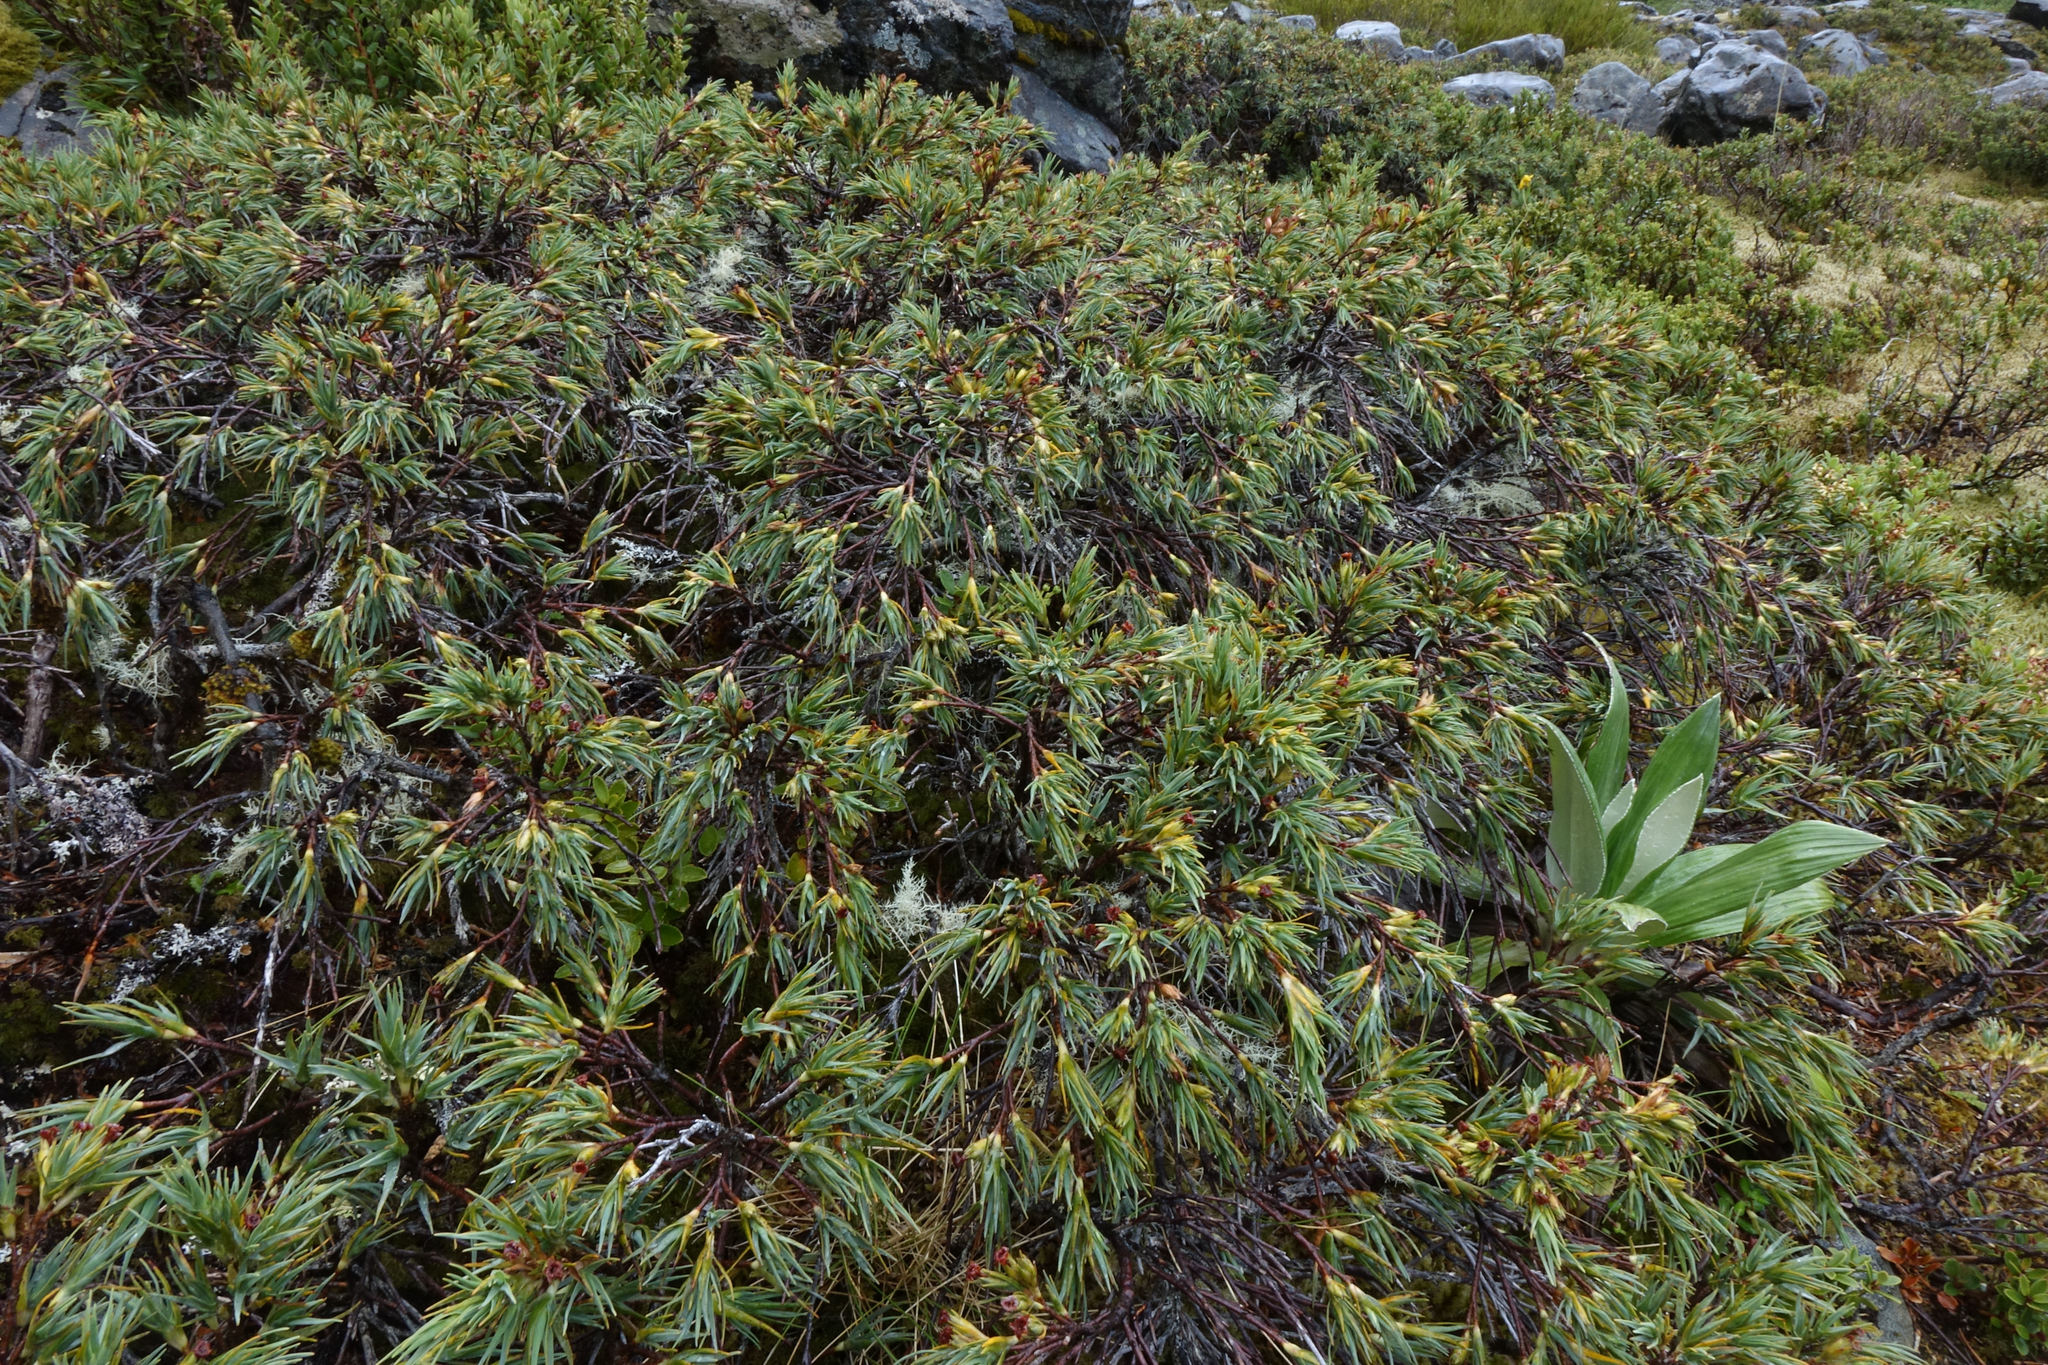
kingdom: Plantae
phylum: Tracheophyta
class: Magnoliopsida
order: Ericales
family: Ericaceae
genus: Dracophyllum
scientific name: Dracophyllum kirkii
